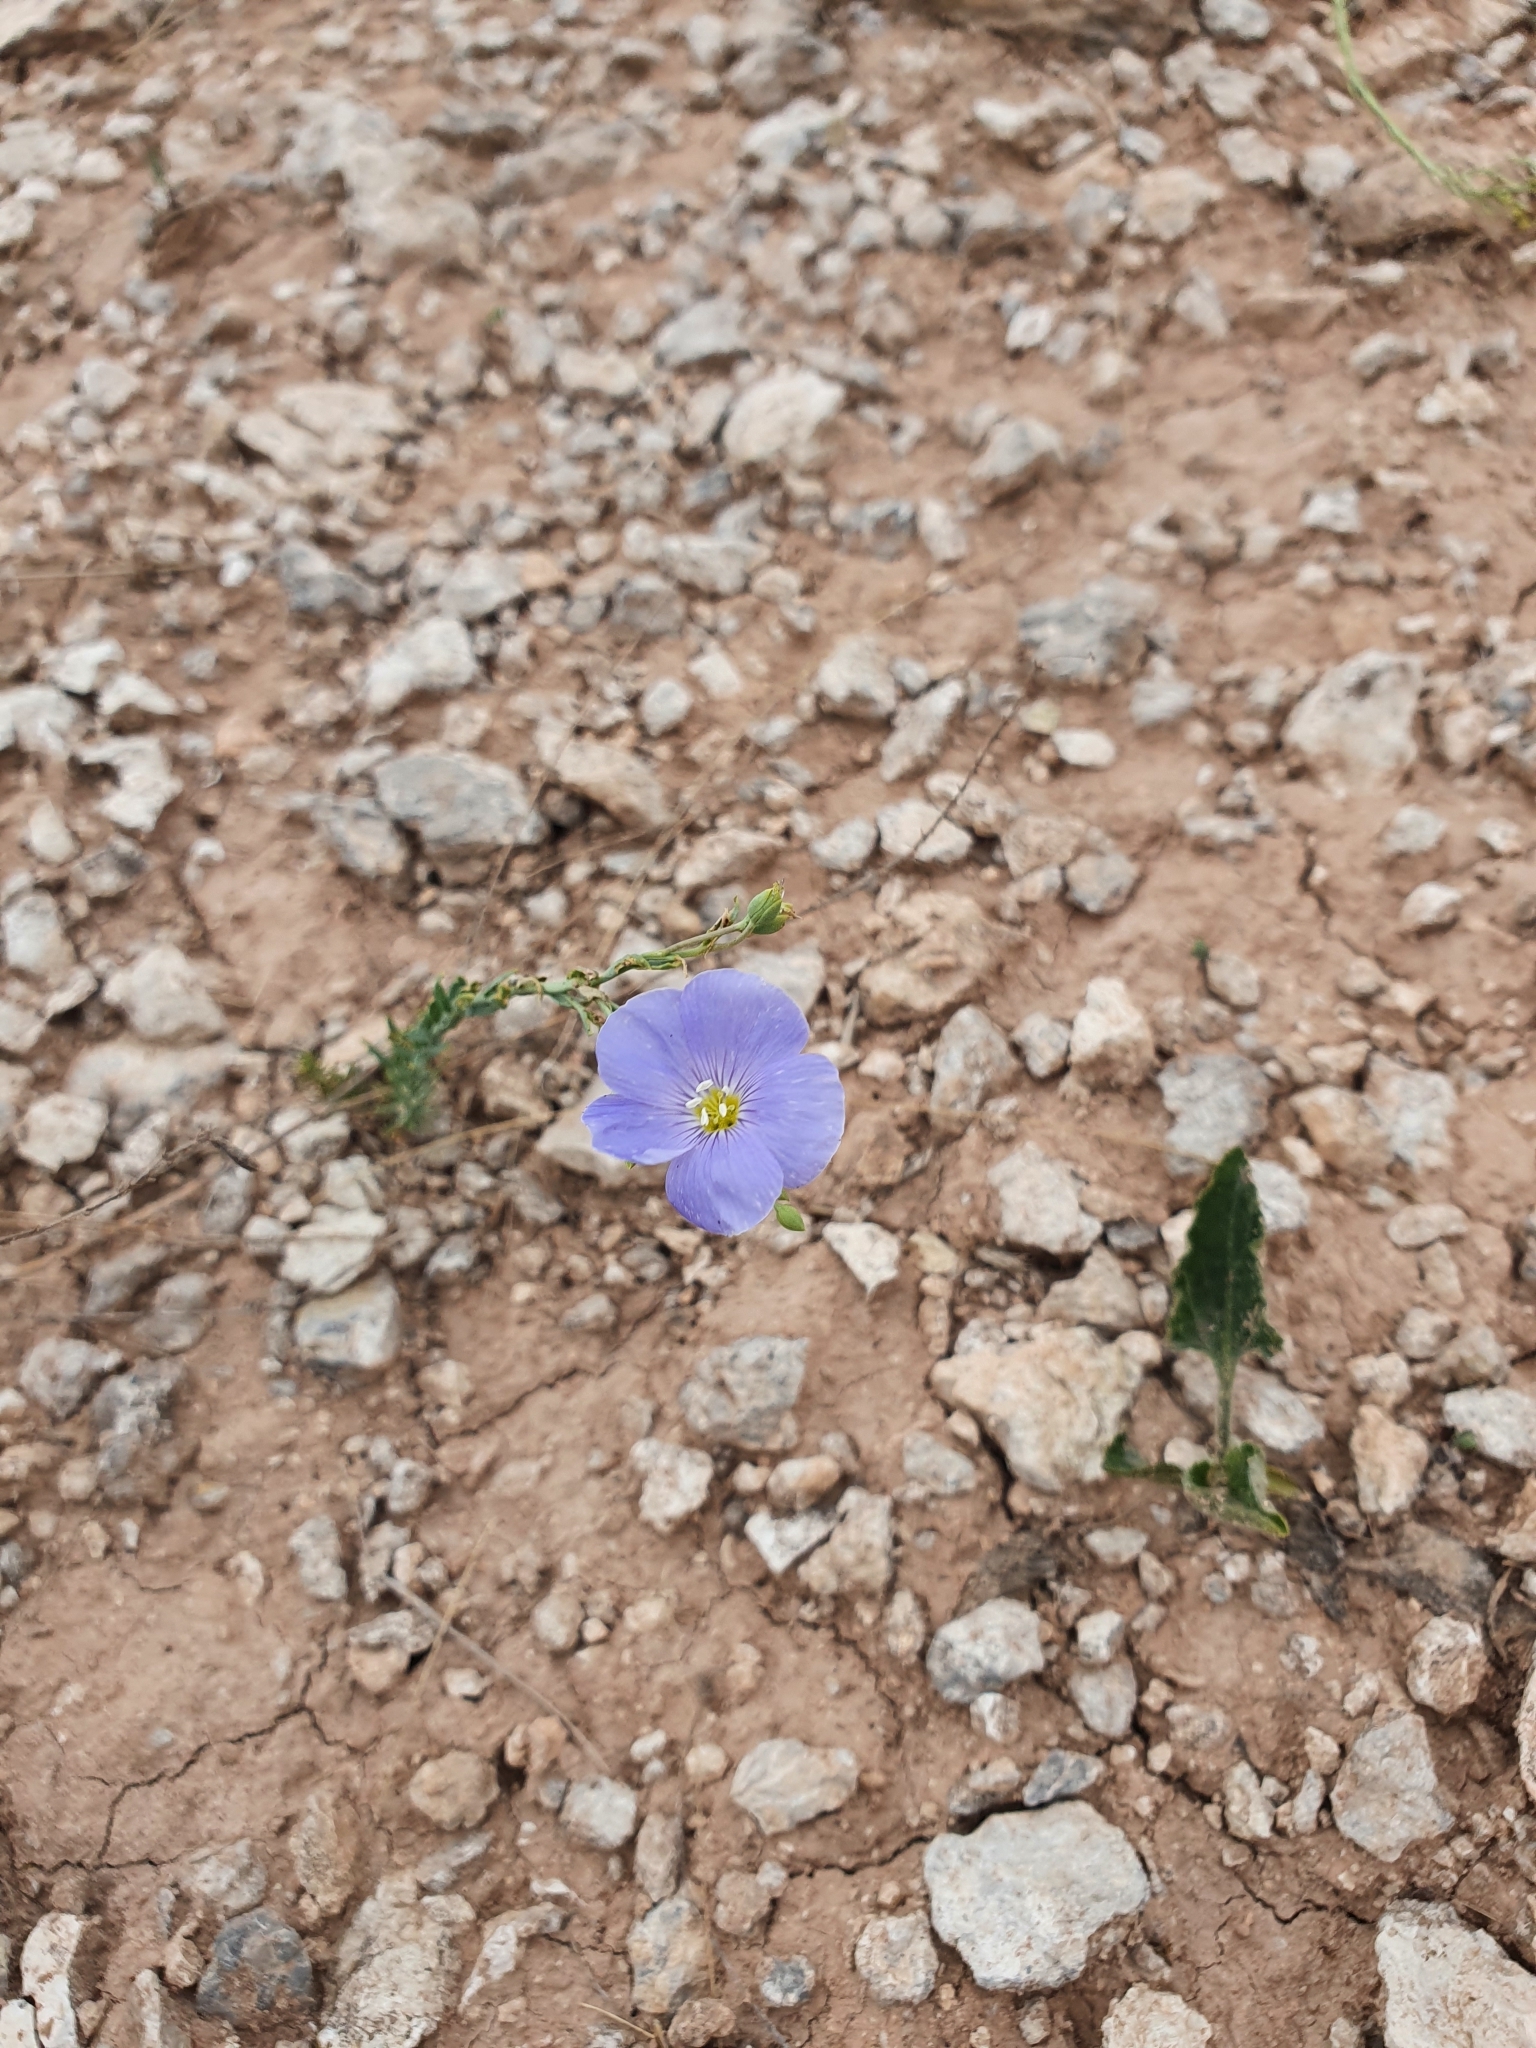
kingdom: Plantae
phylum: Tracheophyta
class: Magnoliopsida
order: Malpighiales
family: Linaceae
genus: Linum
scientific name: Linum perenne
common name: Blue flax
